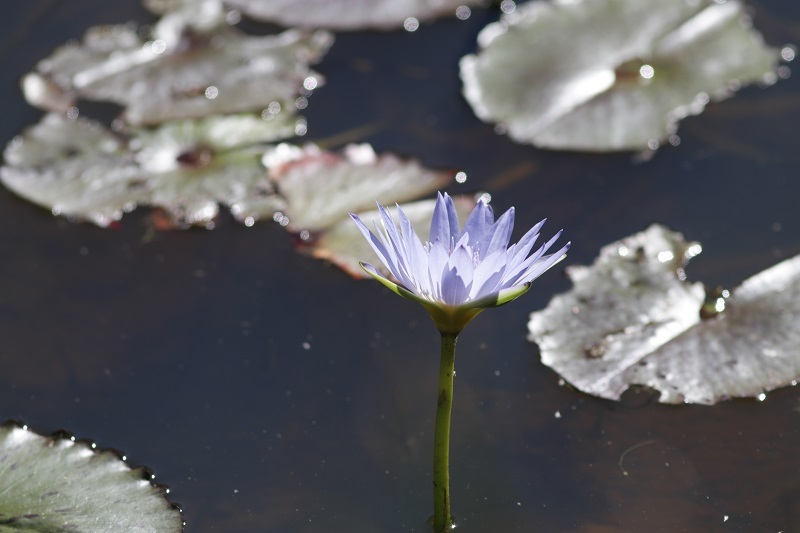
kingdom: Plantae
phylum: Tracheophyta
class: Magnoliopsida
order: Nymphaeales
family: Nymphaeaceae
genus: Nymphaea
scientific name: Nymphaea nouchali
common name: Blue lotus
